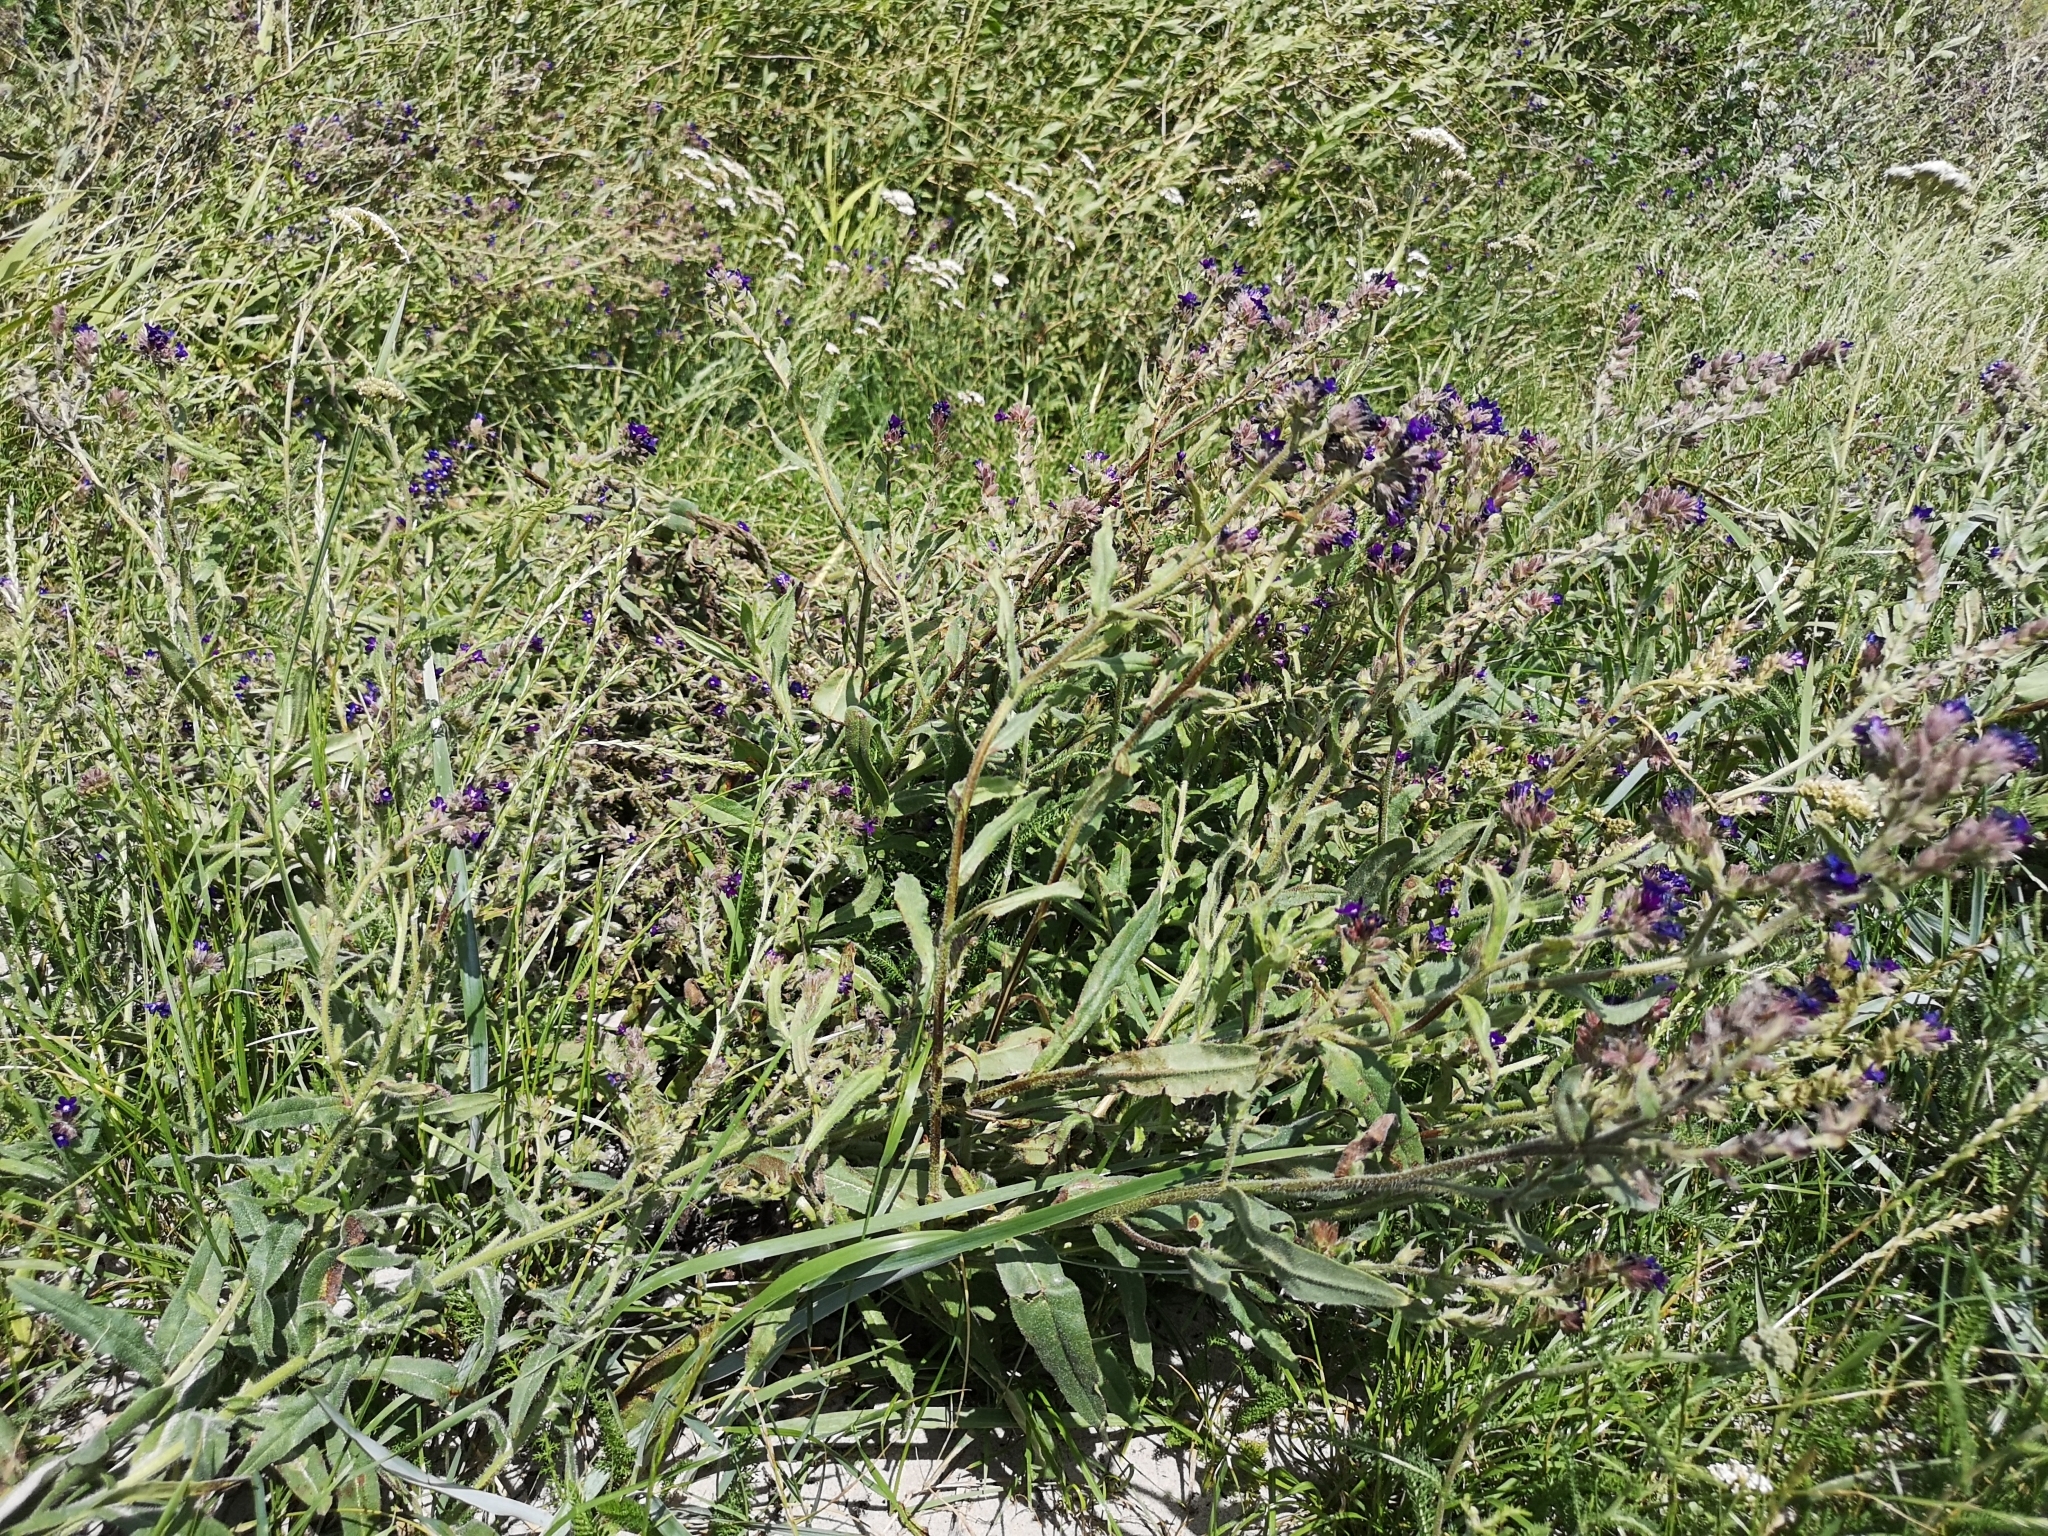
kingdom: Plantae
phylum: Tracheophyta
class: Magnoliopsida
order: Boraginales
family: Boraginaceae
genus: Anchusa
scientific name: Anchusa officinalis
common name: Alkanet
